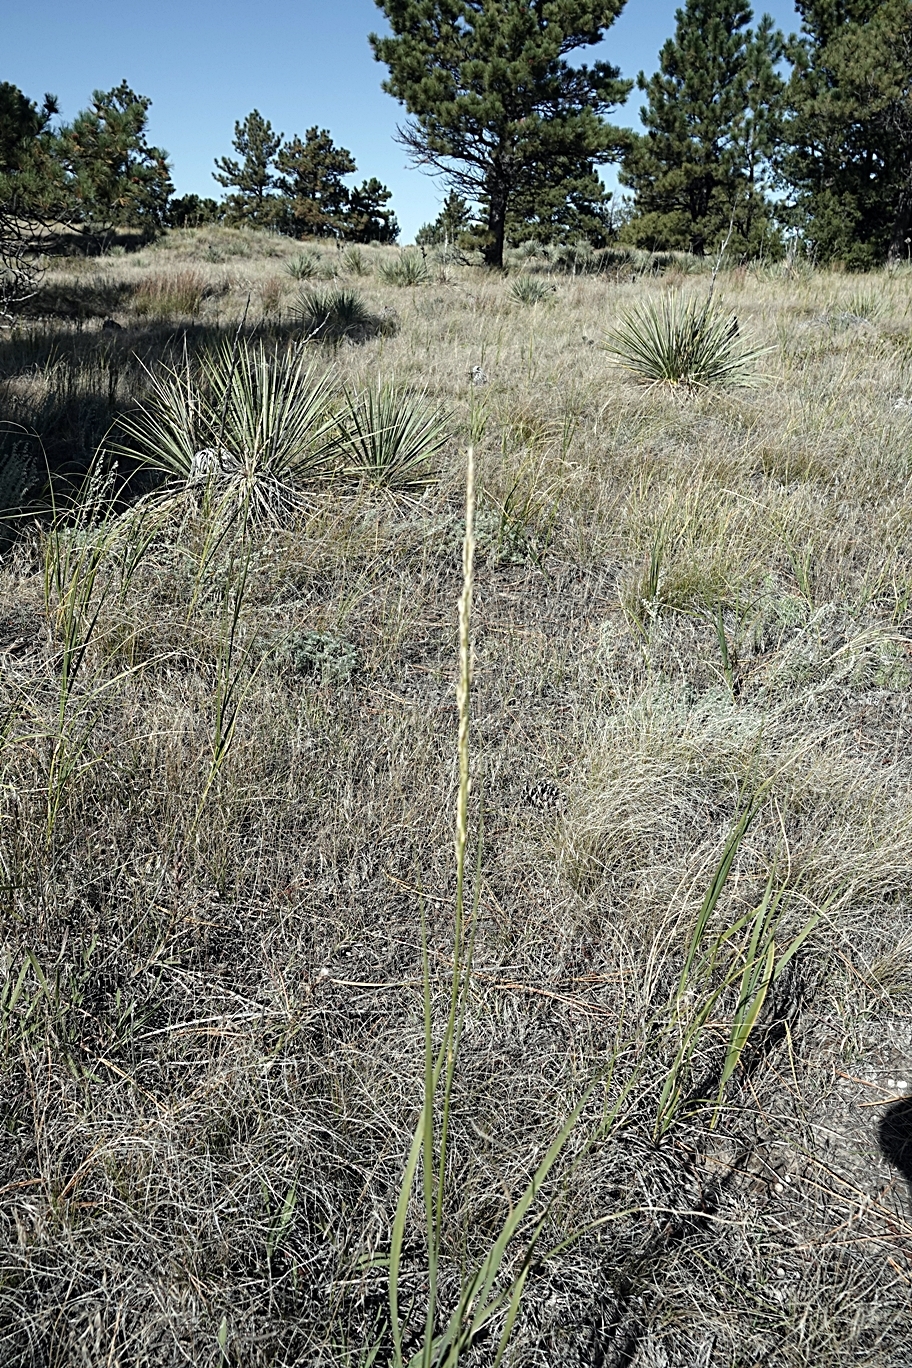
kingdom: Plantae
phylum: Tracheophyta
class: Liliopsida
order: Poales
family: Poaceae
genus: Sporobolus
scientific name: Sporobolus rigidus
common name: Prairie sandreed
